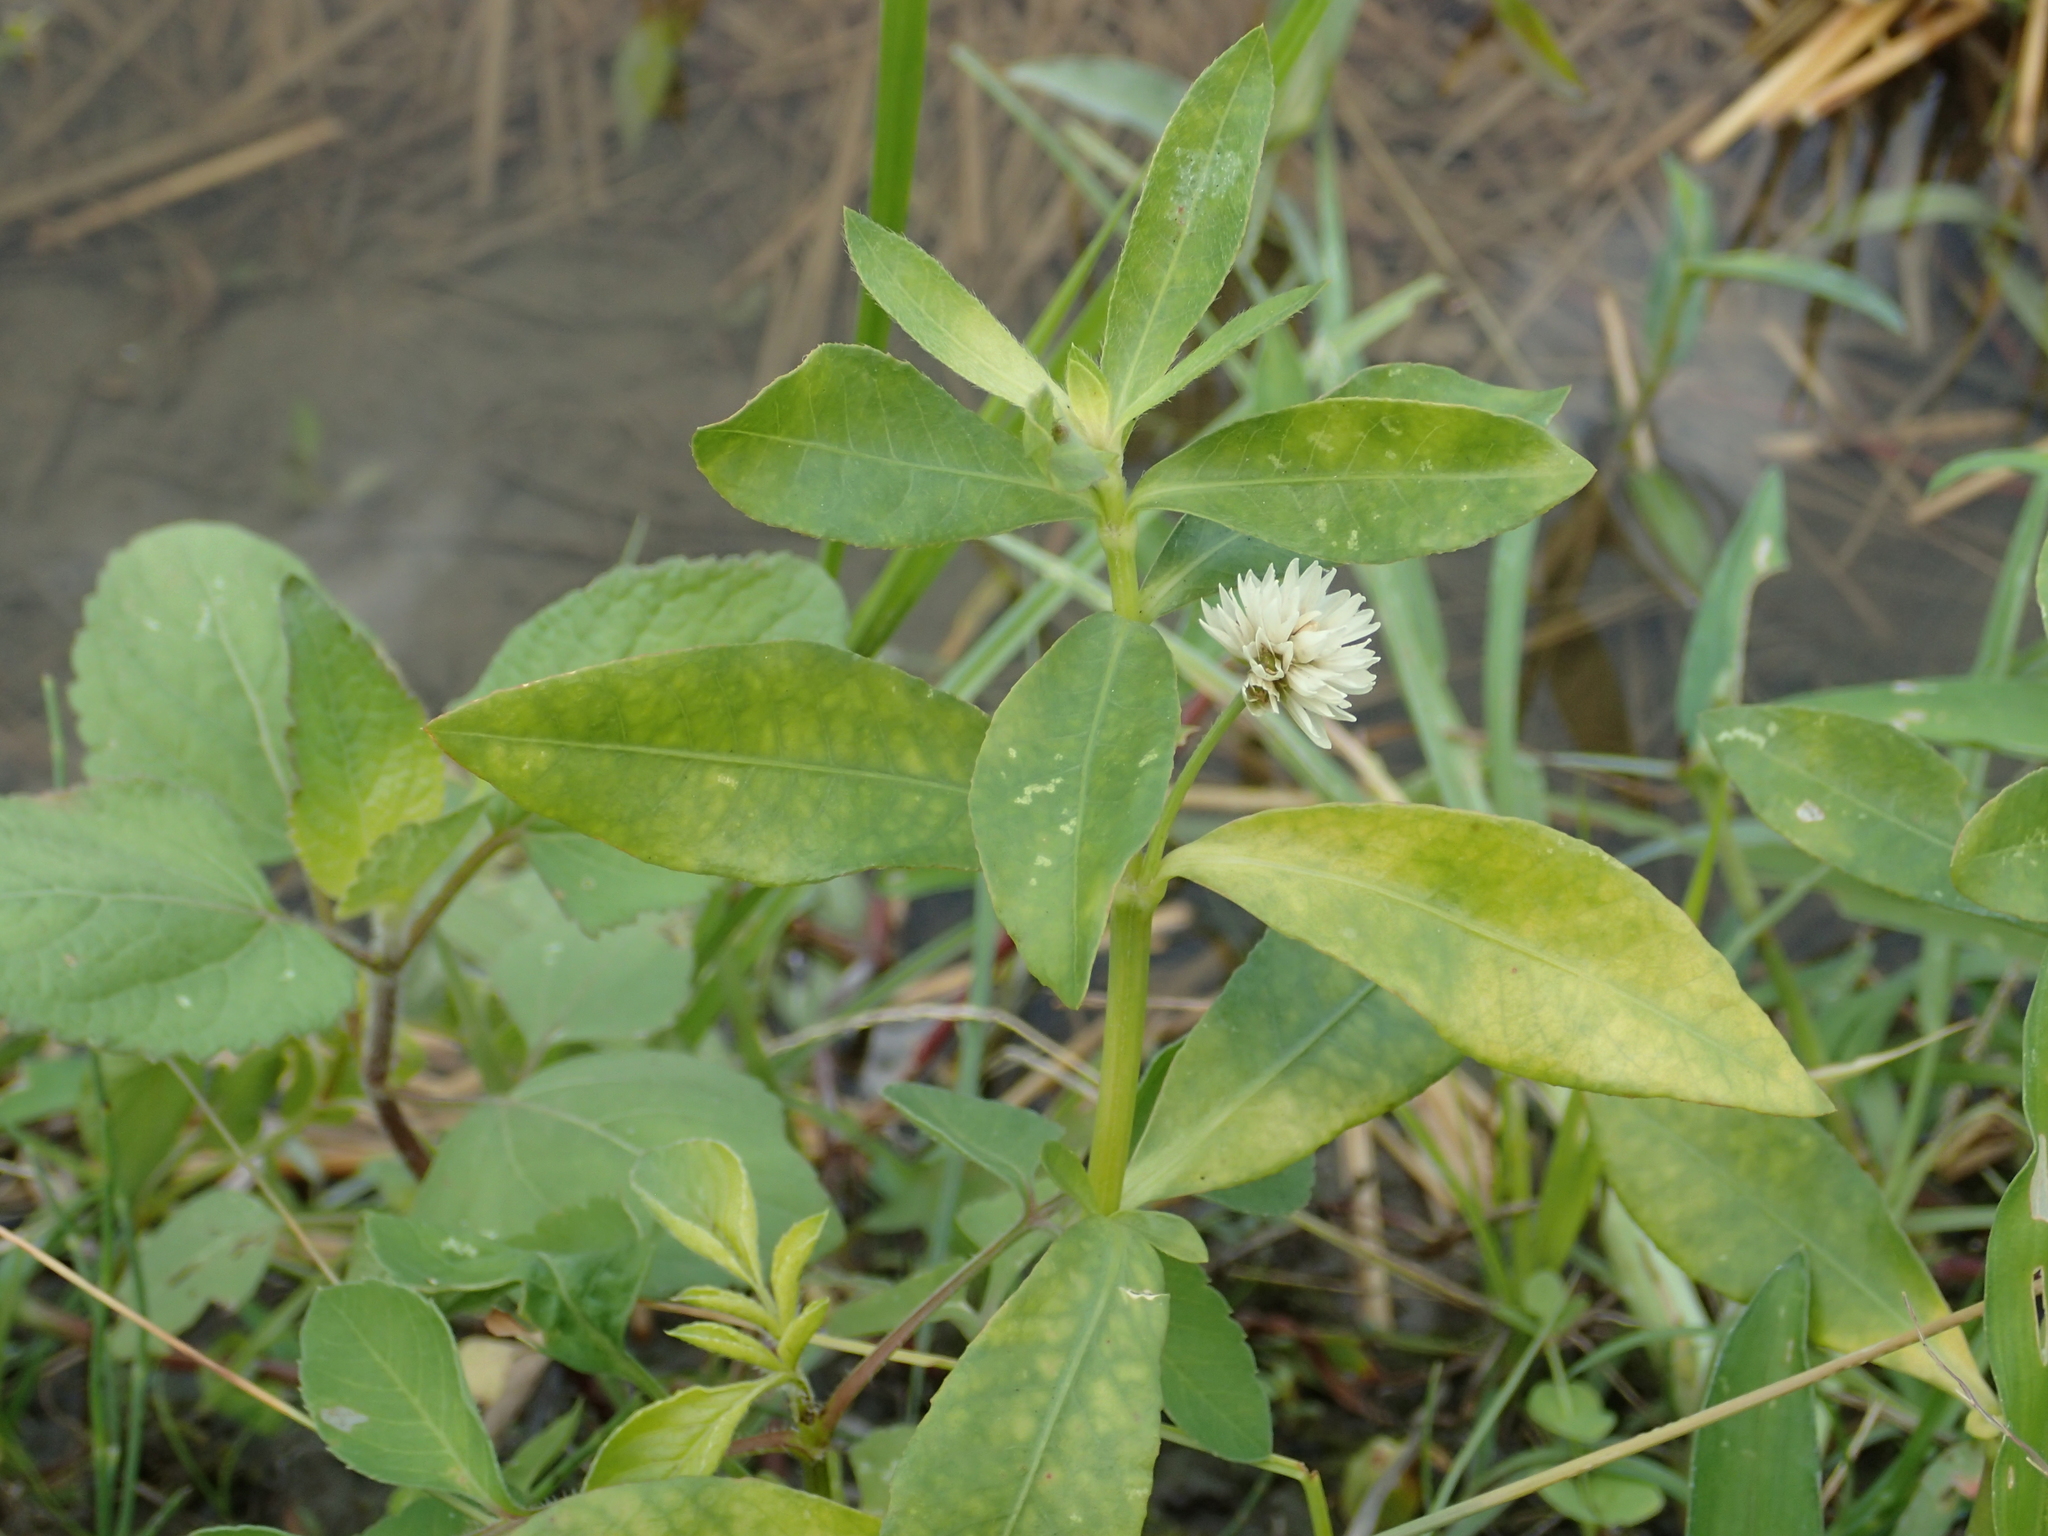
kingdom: Plantae
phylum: Tracheophyta
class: Magnoliopsida
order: Caryophyllales
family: Amaranthaceae
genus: Alternanthera
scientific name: Alternanthera philoxeroides
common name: Alligatorweed
